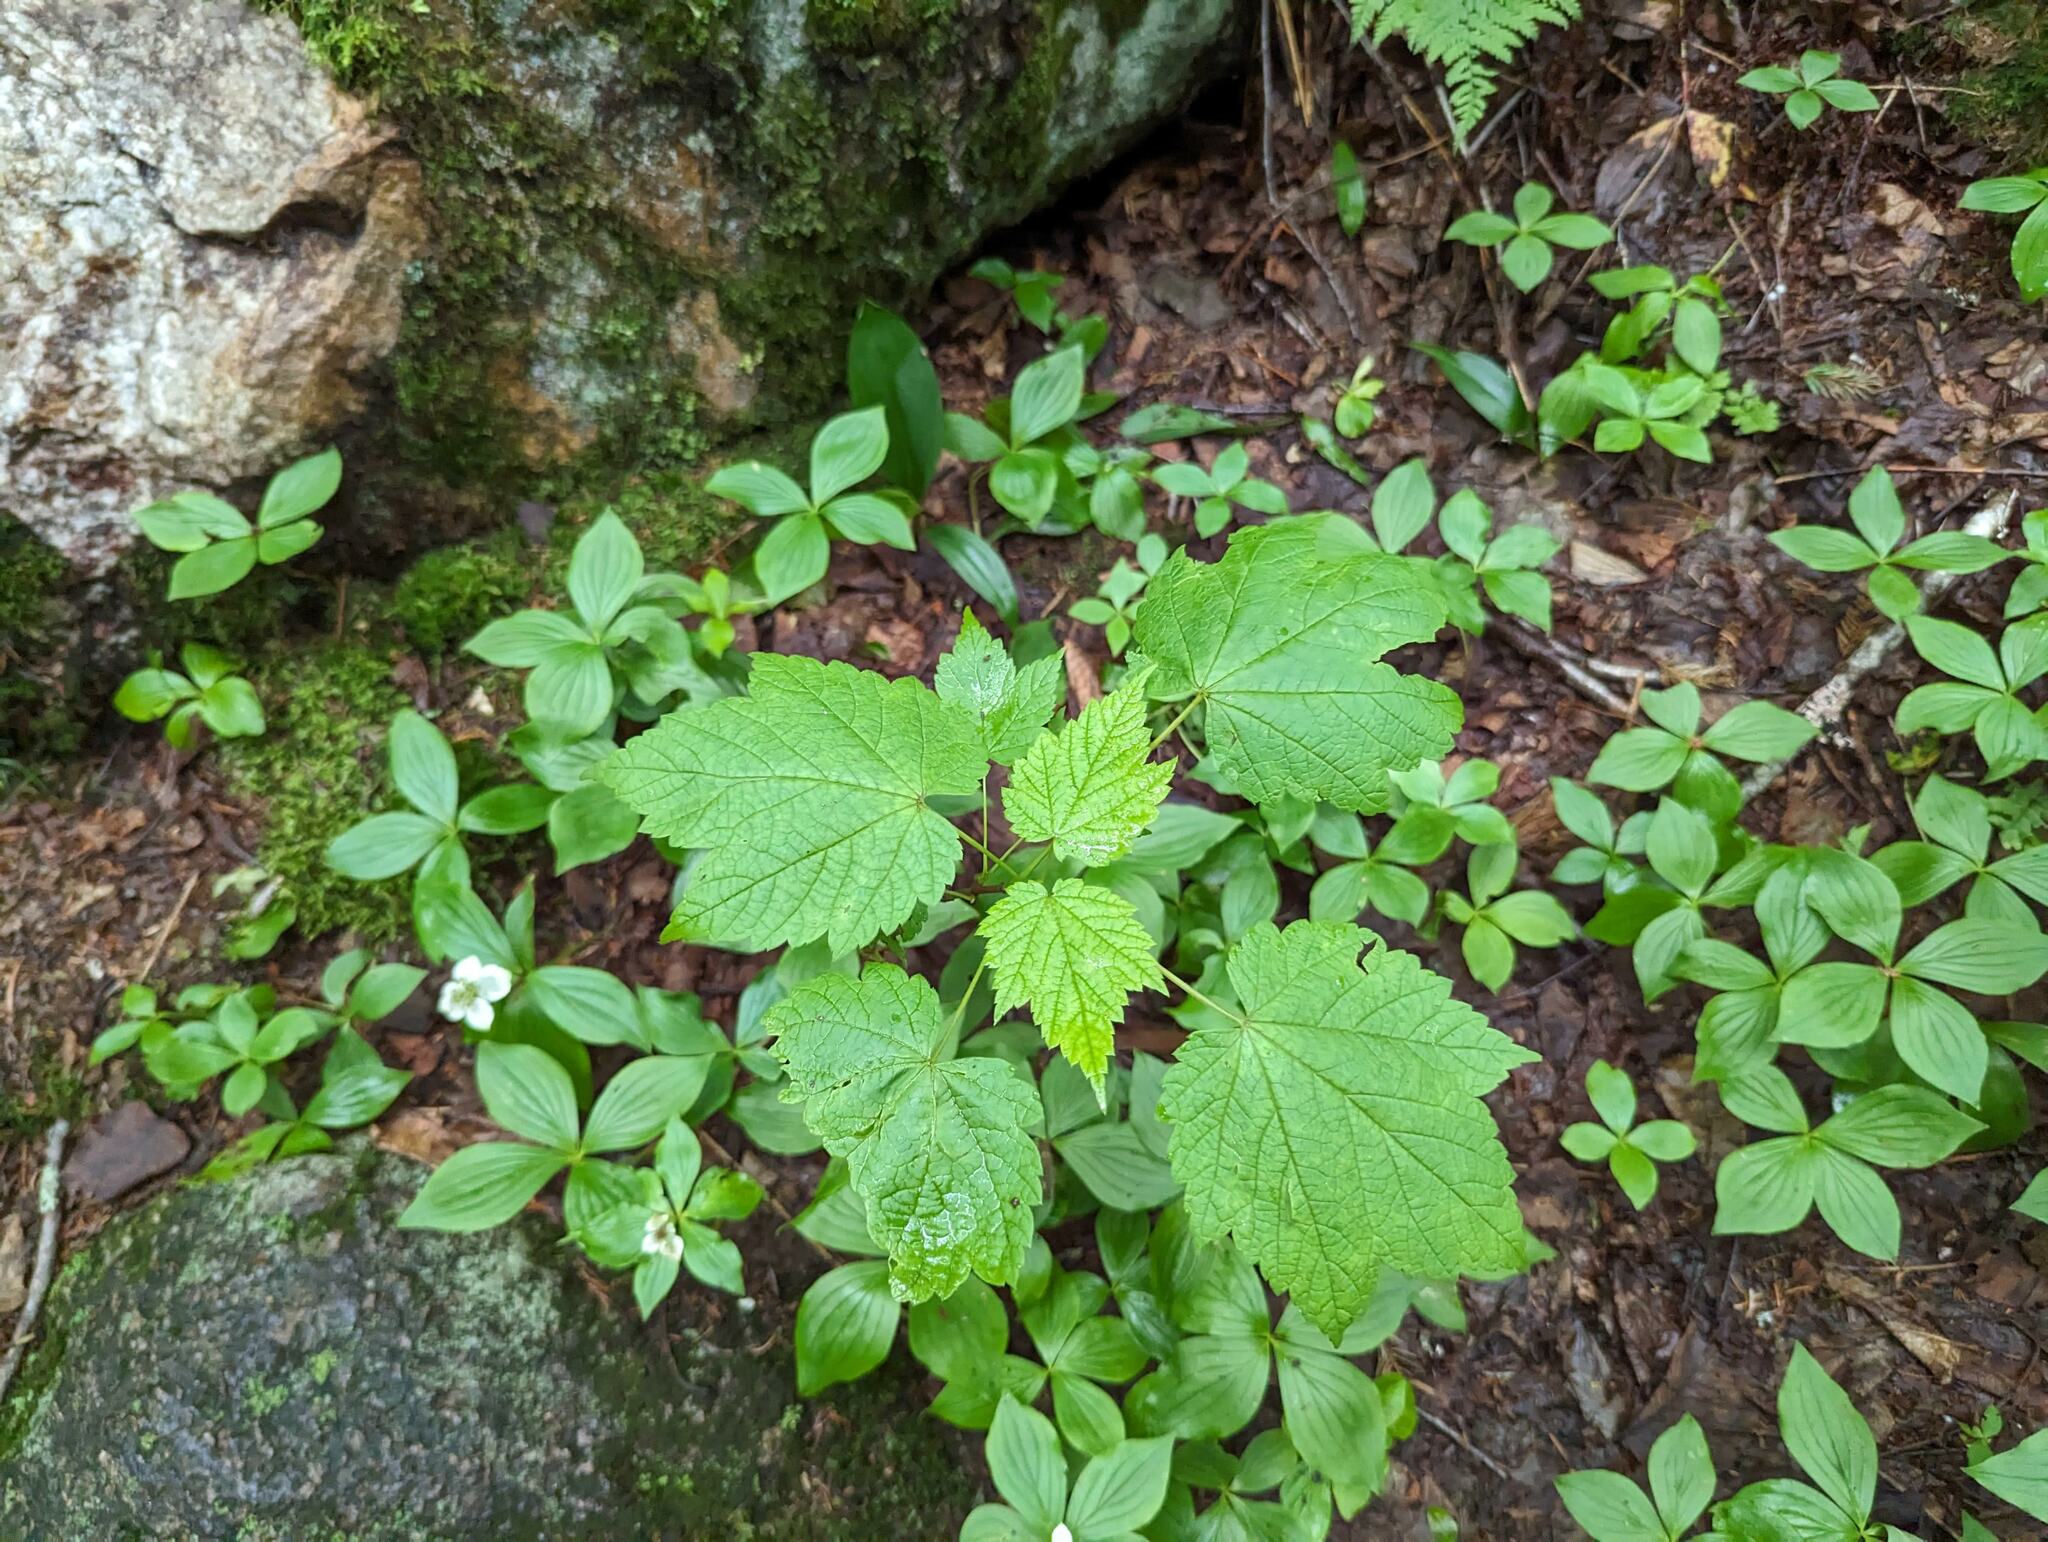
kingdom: Plantae
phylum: Tracheophyta
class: Magnoliopsida
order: Sapindales
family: Sapindaceae
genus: Acer
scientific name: Acer spicatum
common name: Mountain maple
